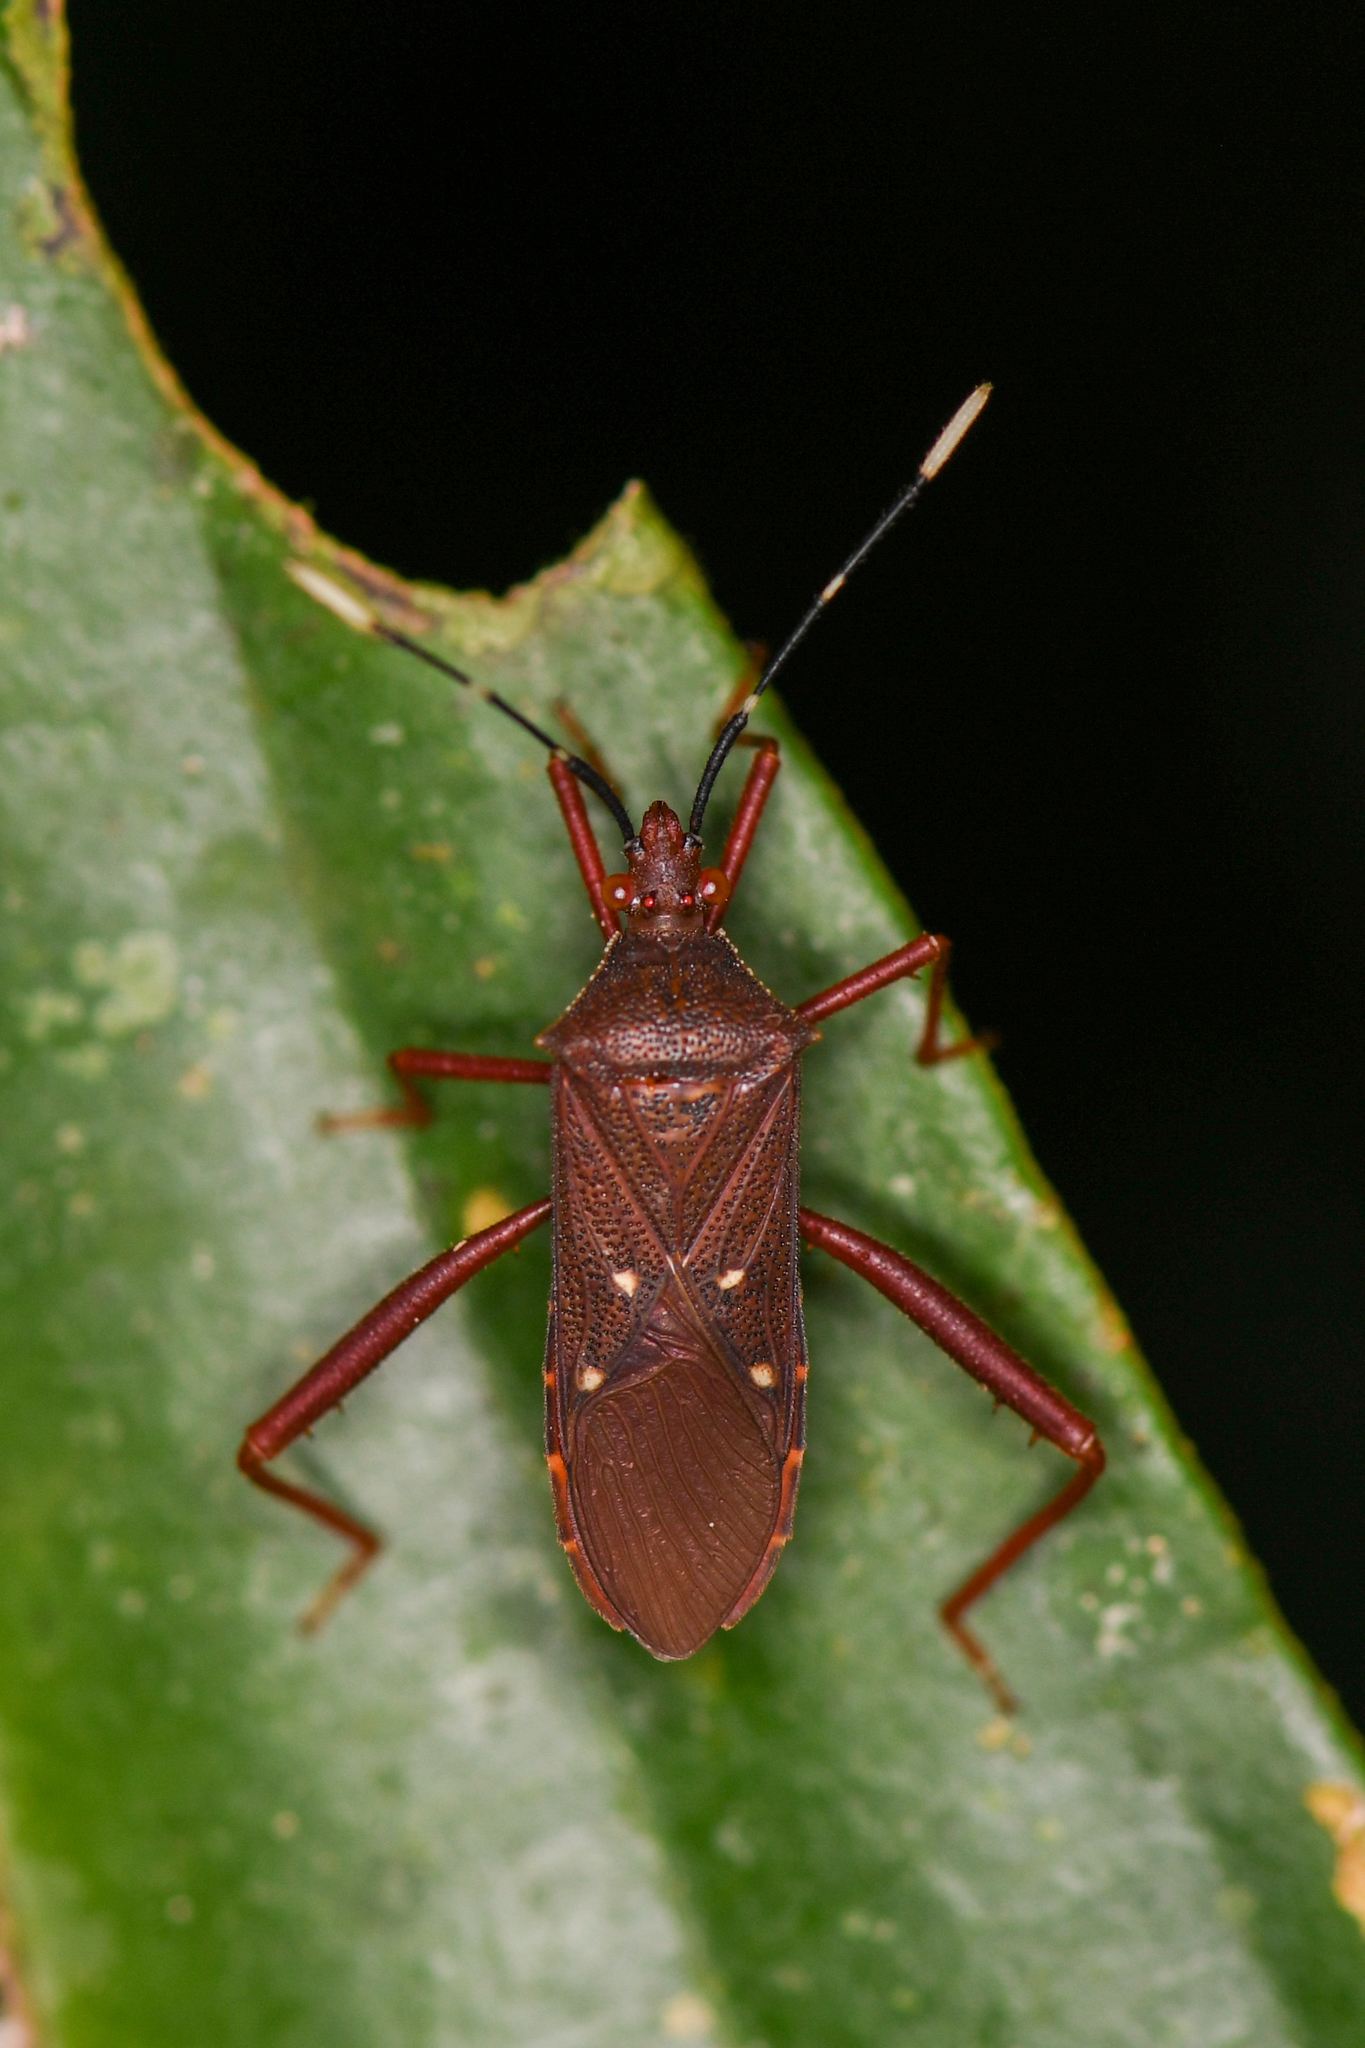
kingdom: Animalia
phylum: Arthropoda
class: Insecta
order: Hemiptera
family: Coreidae
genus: Leptoscelis
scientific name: Leptoscelis quadrisignatus
